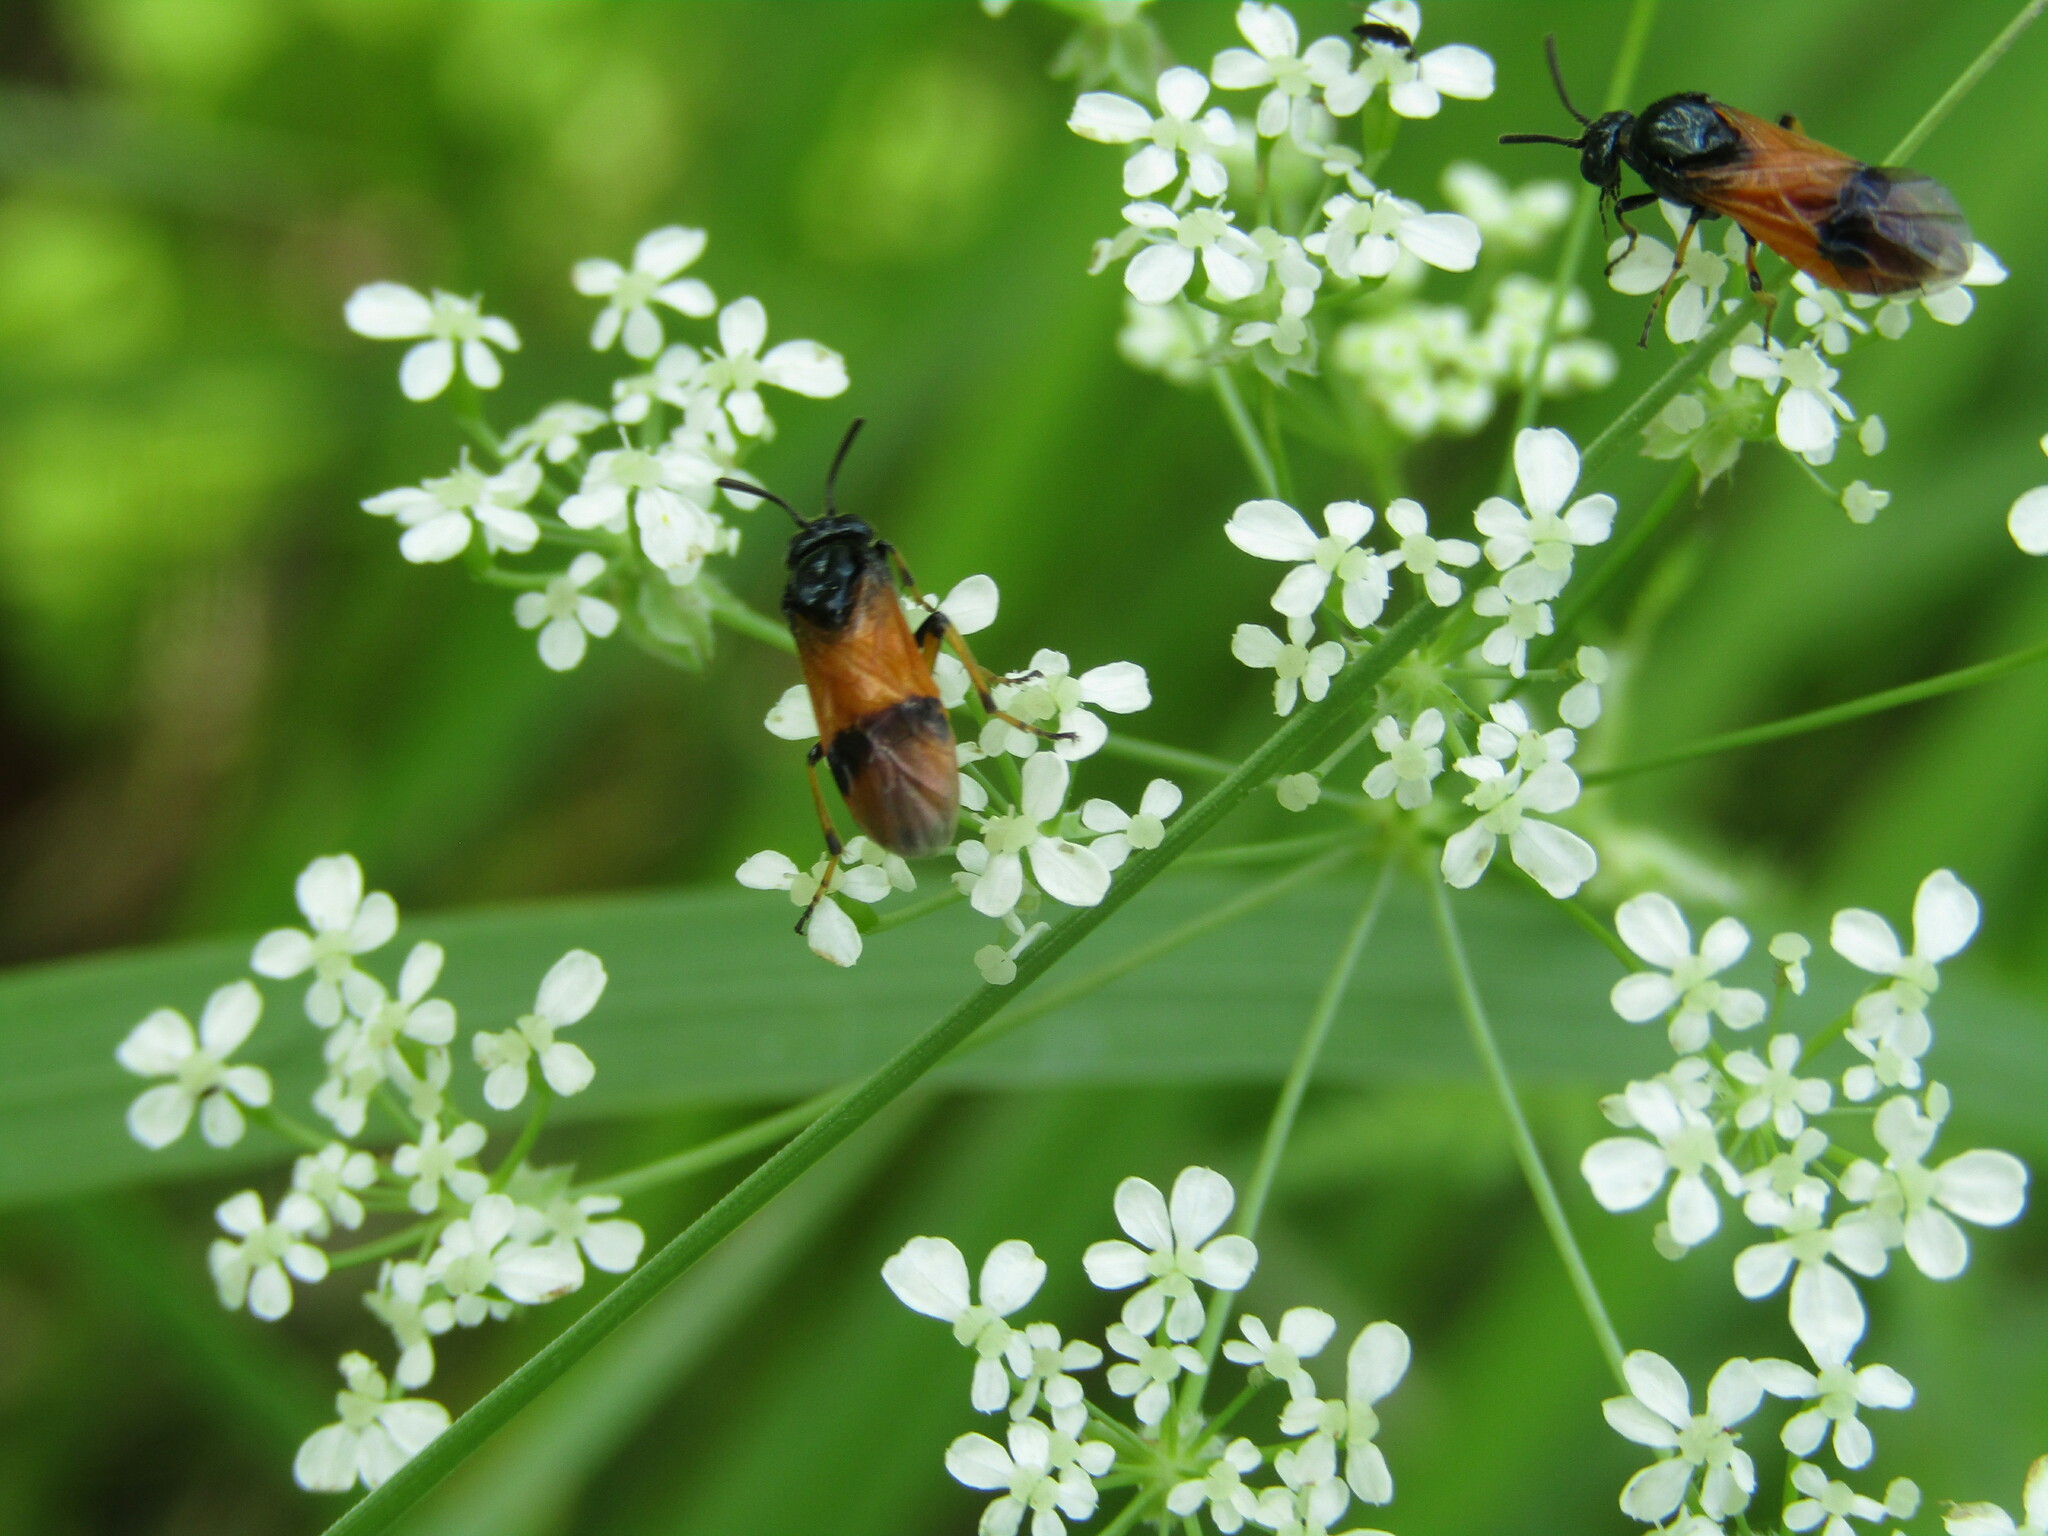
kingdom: Animalia
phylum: Arthropoda
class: Insecta
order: Hymenoptera
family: Argidae
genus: Arge
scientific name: Arge cyanocrocea
